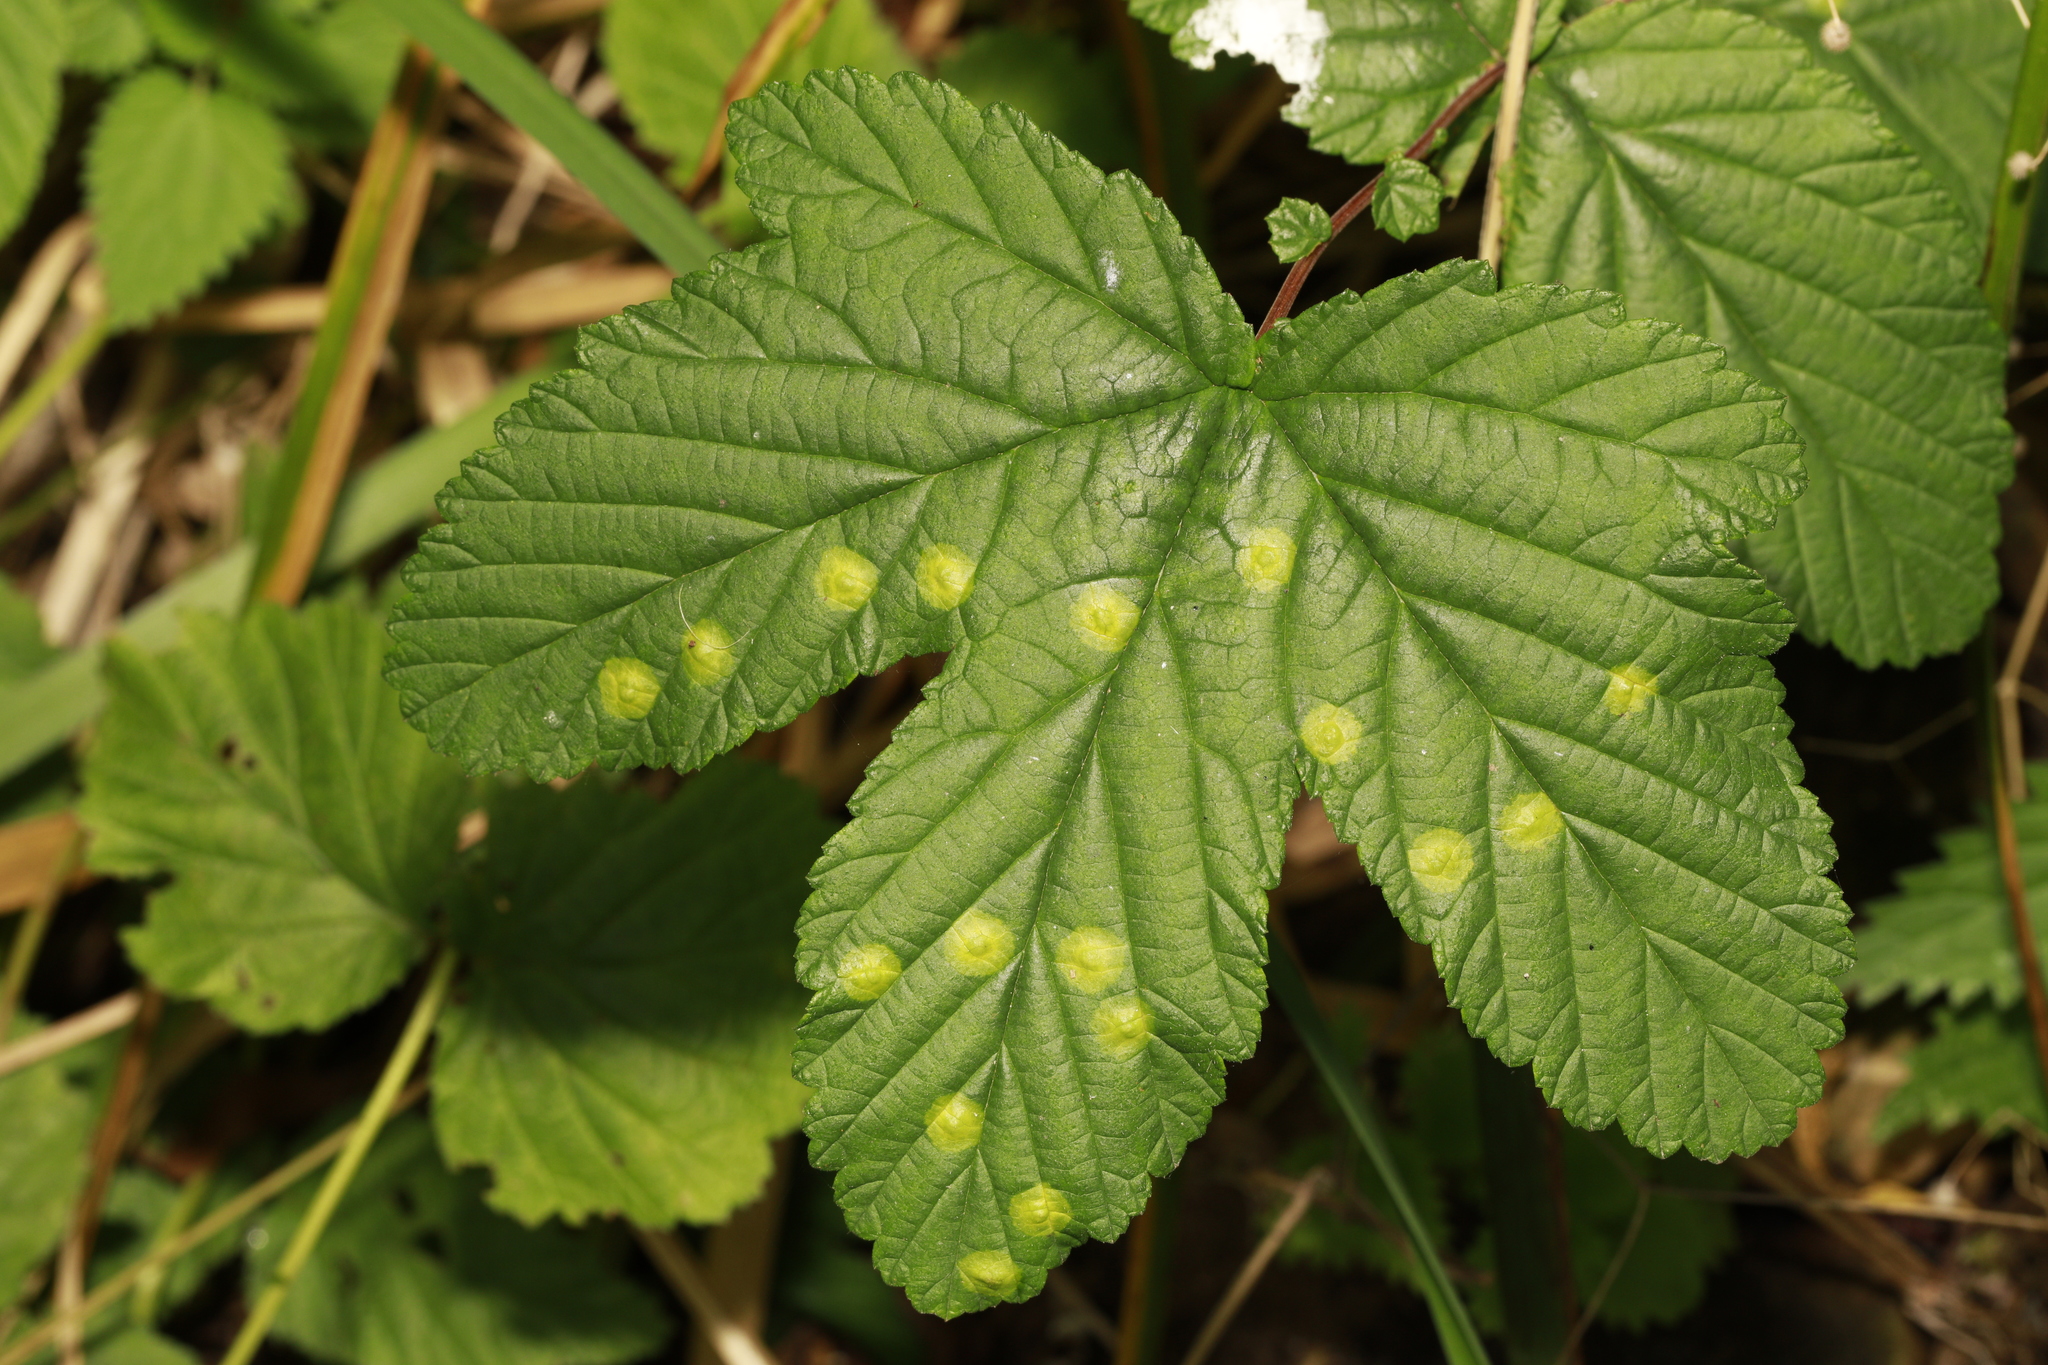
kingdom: Plantae
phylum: Tracheophyta
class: Magnoliopsida
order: Rosales
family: Rosaceae
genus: Filipendula
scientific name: Filipendula ulmaria
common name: Meadowsweet
